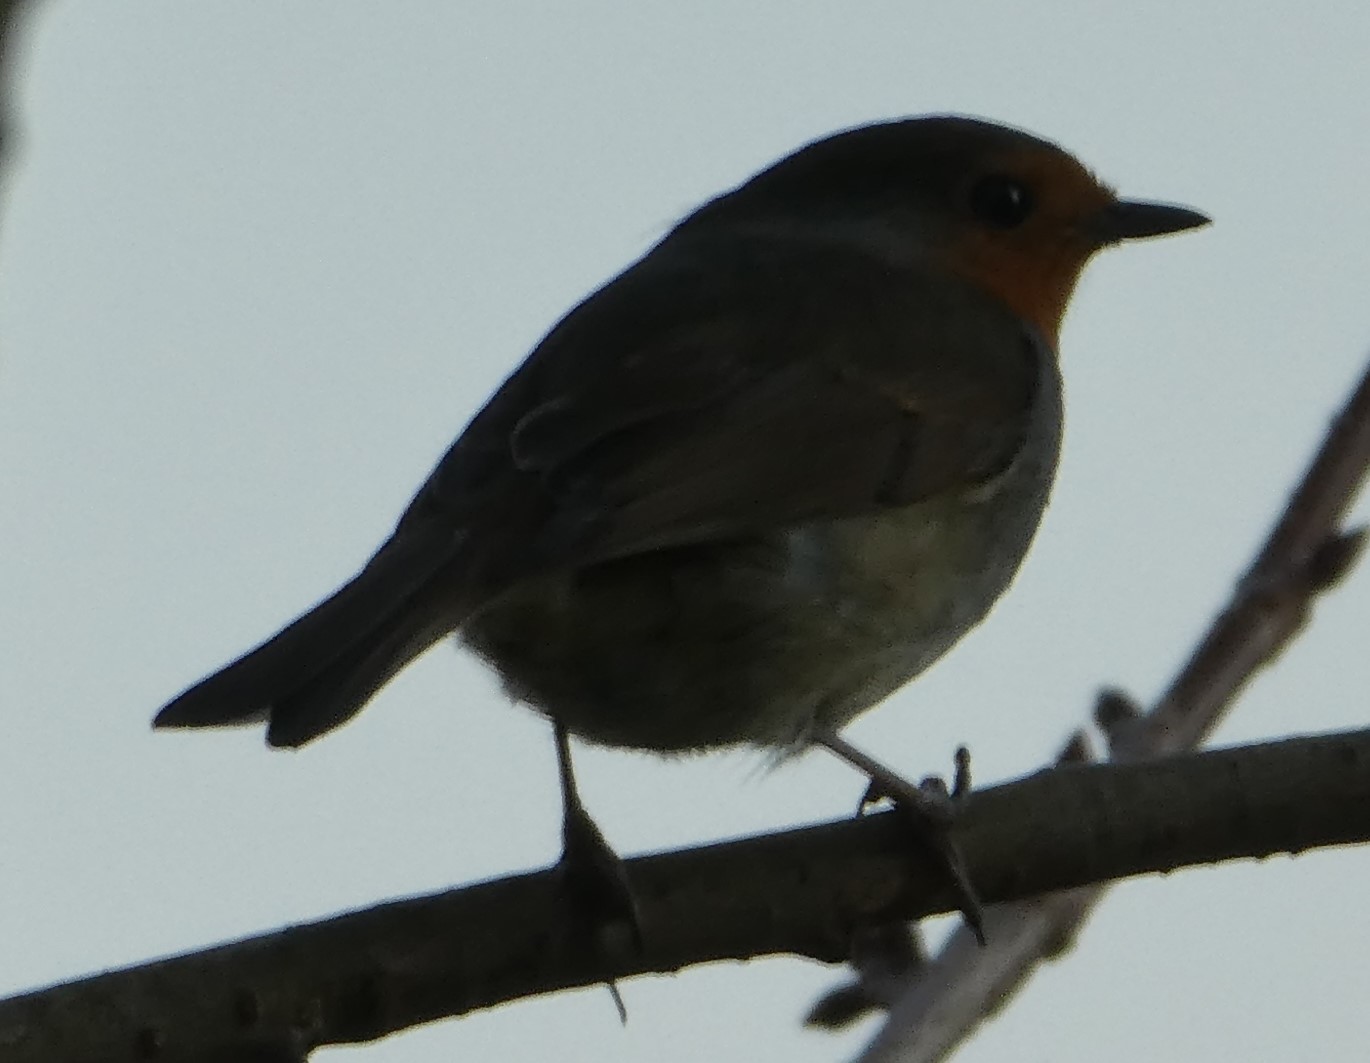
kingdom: Animalia
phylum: Chordata
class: Aves
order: Passeriformes
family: Muscicapidae
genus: Erithacus
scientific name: Erithacus rubecula
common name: European robin
